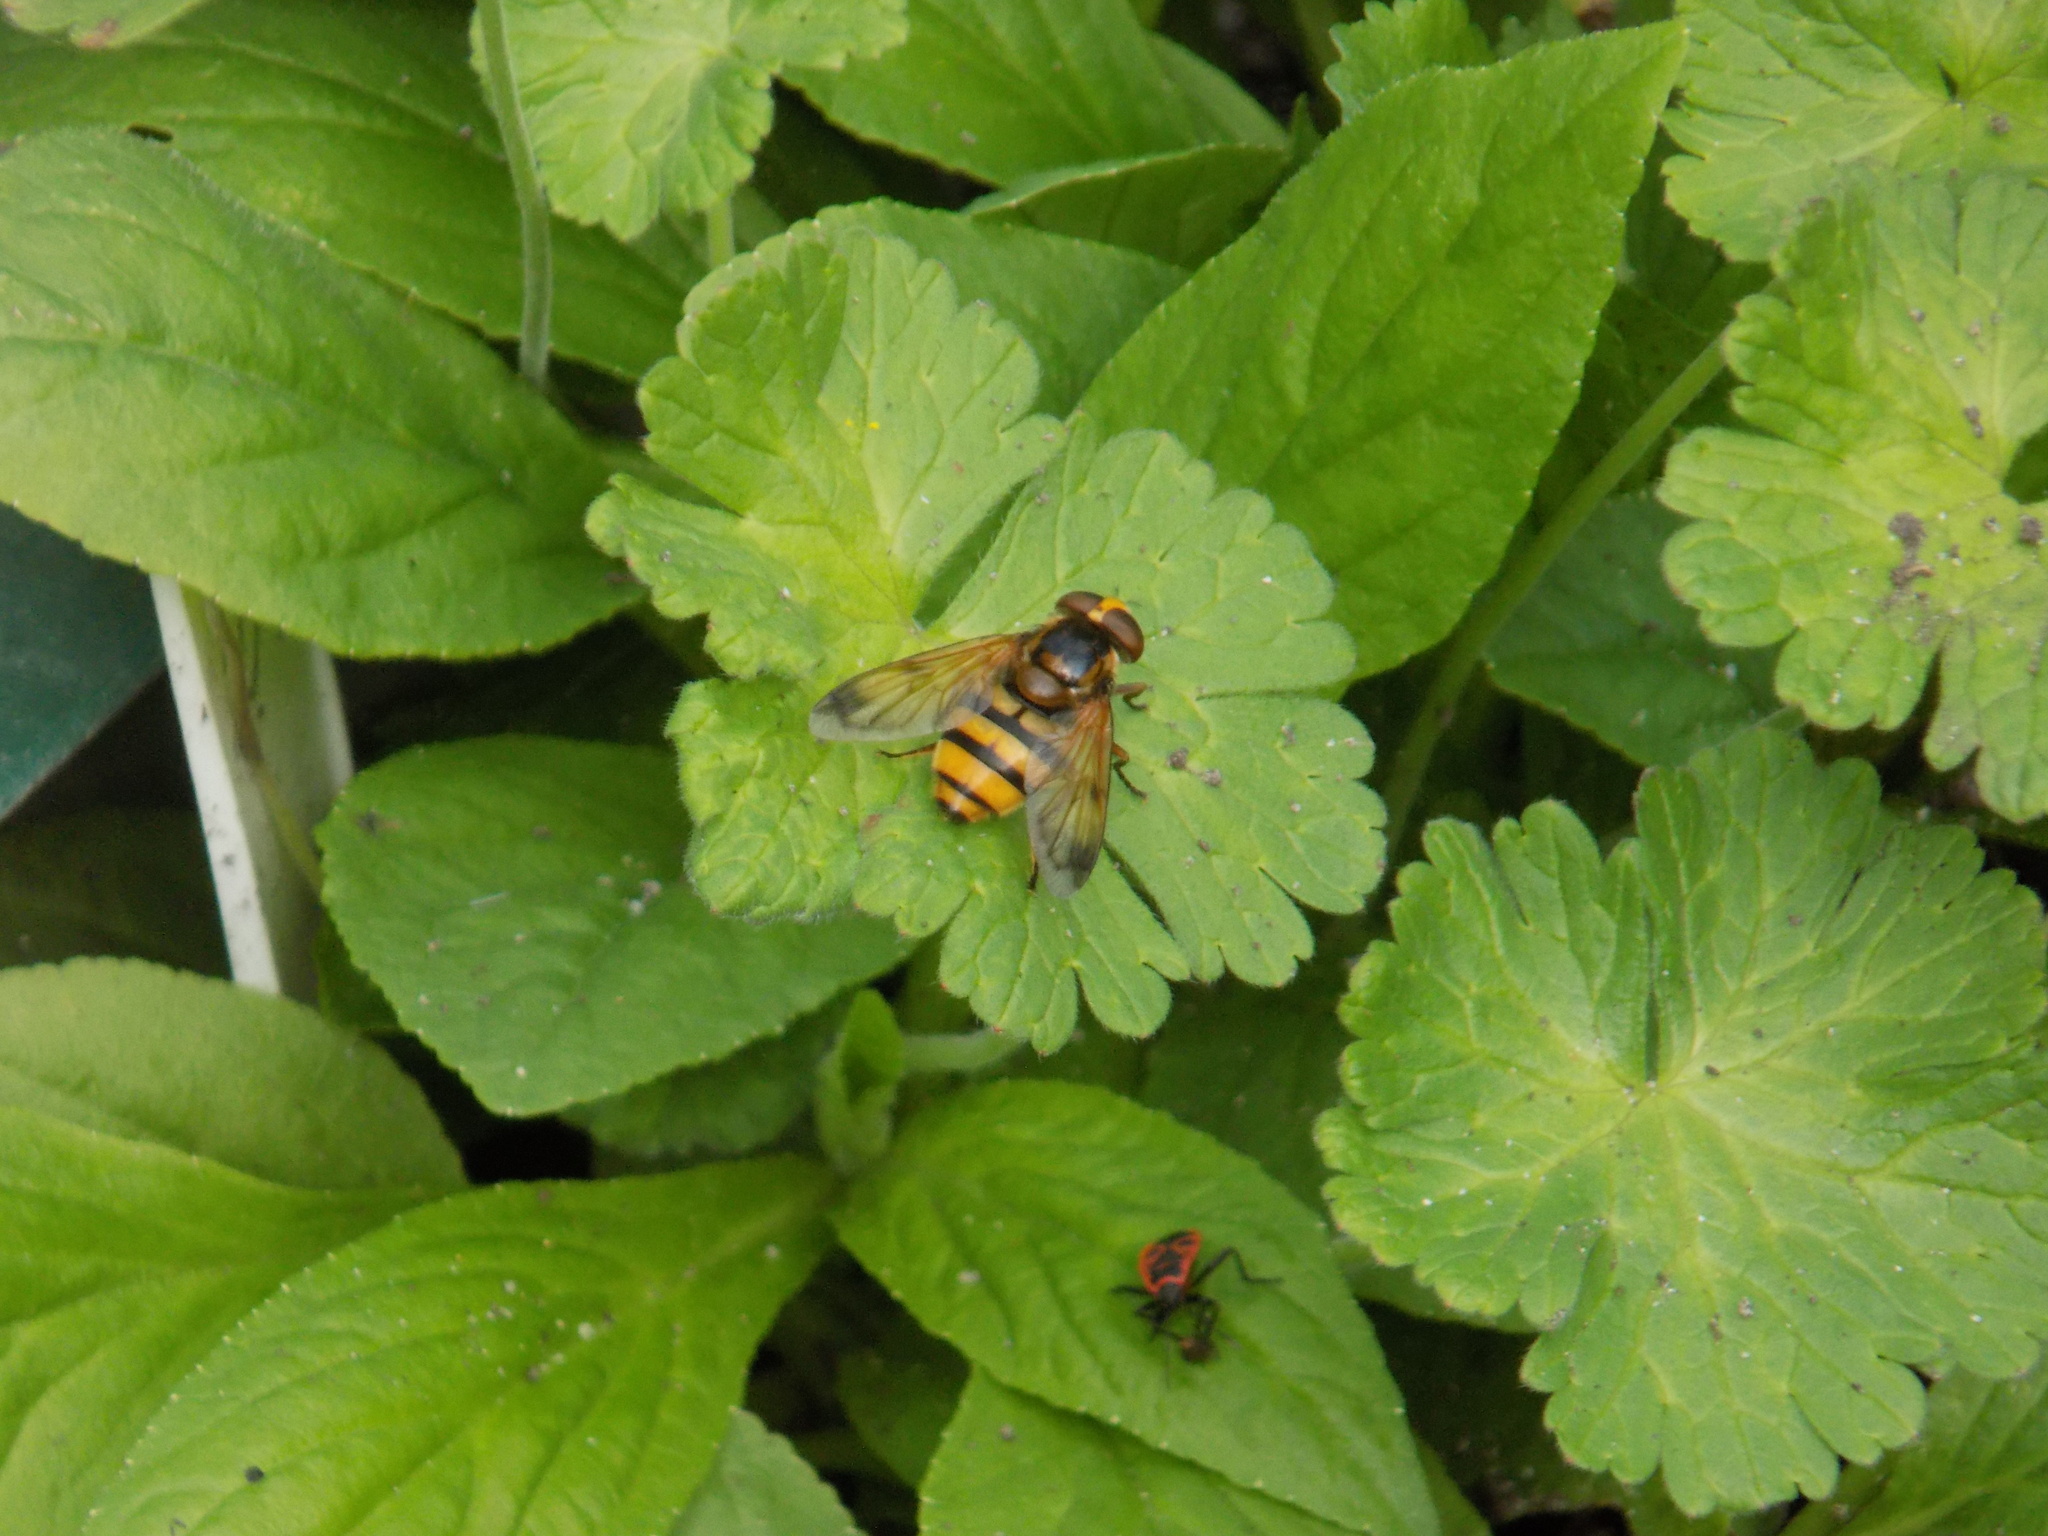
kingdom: Animalia
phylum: Arthropoda
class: Insecta
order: Diptera
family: Syrphidae
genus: Volucella
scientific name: Volucella inanis
